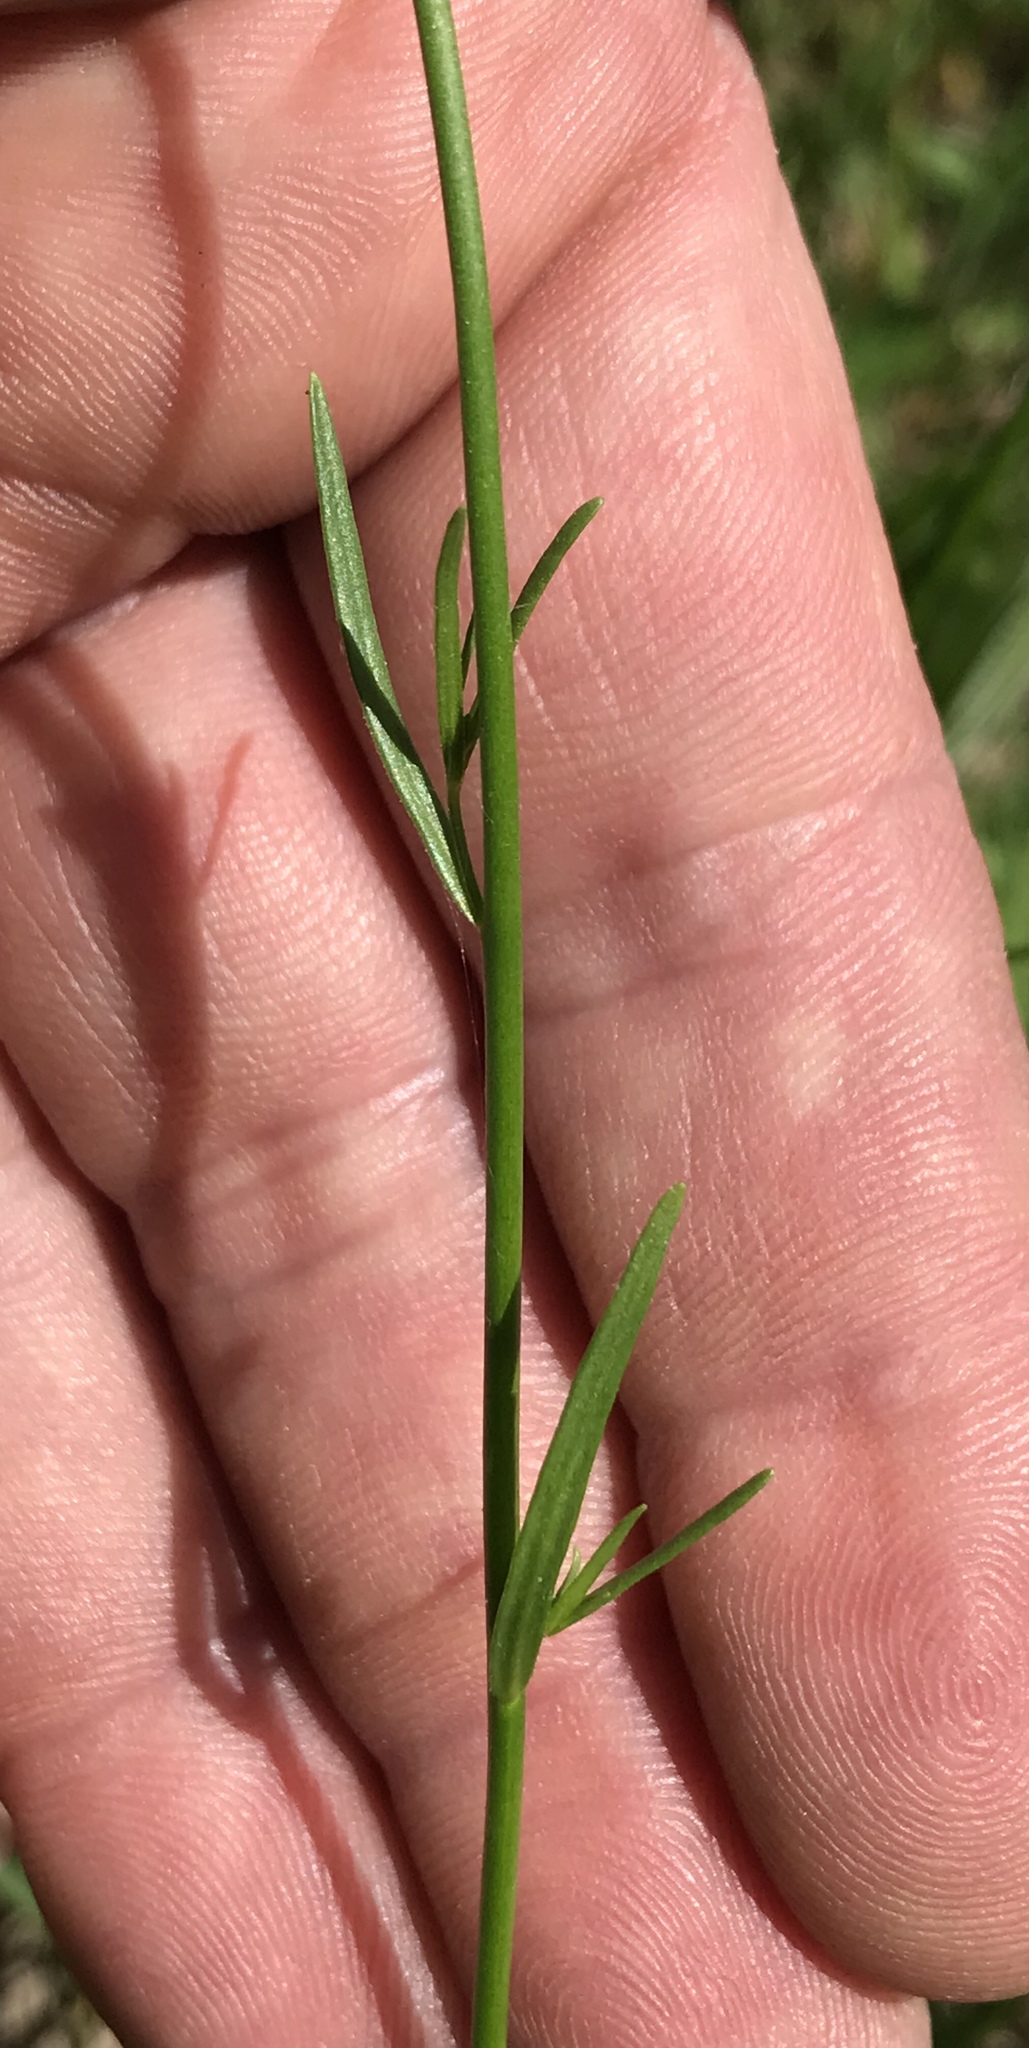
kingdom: Plantae
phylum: Tracheophyta
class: Magnoliopsida
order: Lamiales
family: Plantaginaceae
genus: Nuttallanthus
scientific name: Nuttallanthus texanus
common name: Texas toadflax
